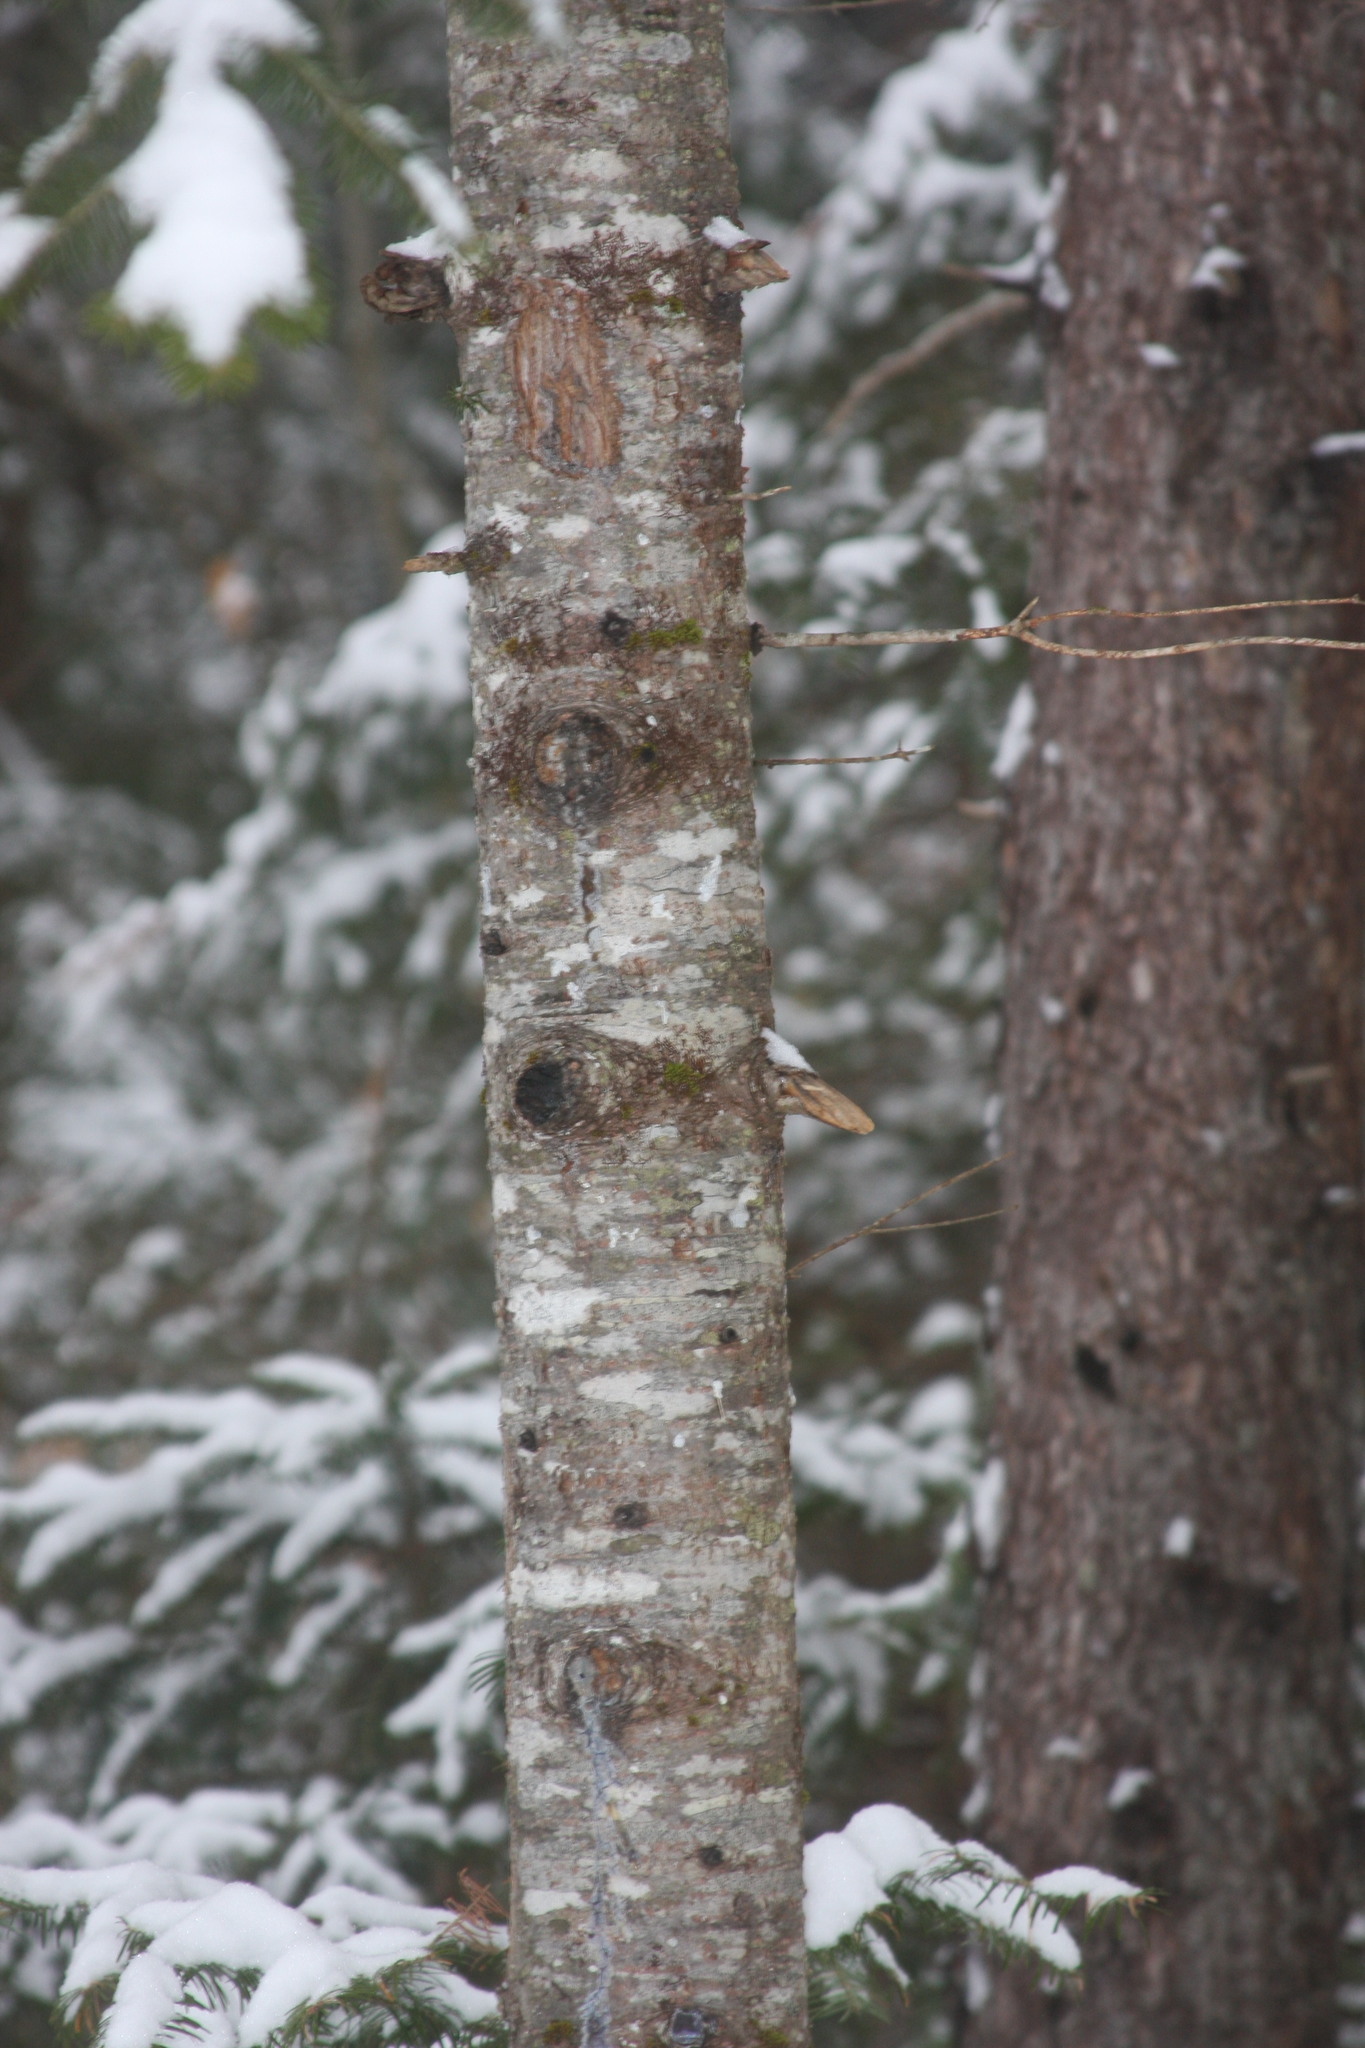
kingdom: Plantae
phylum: Tracheophyta
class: Pinopsida
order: Pinales
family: Pinaceae
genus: Abies
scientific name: Abies balsamea
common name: Balsam fir
